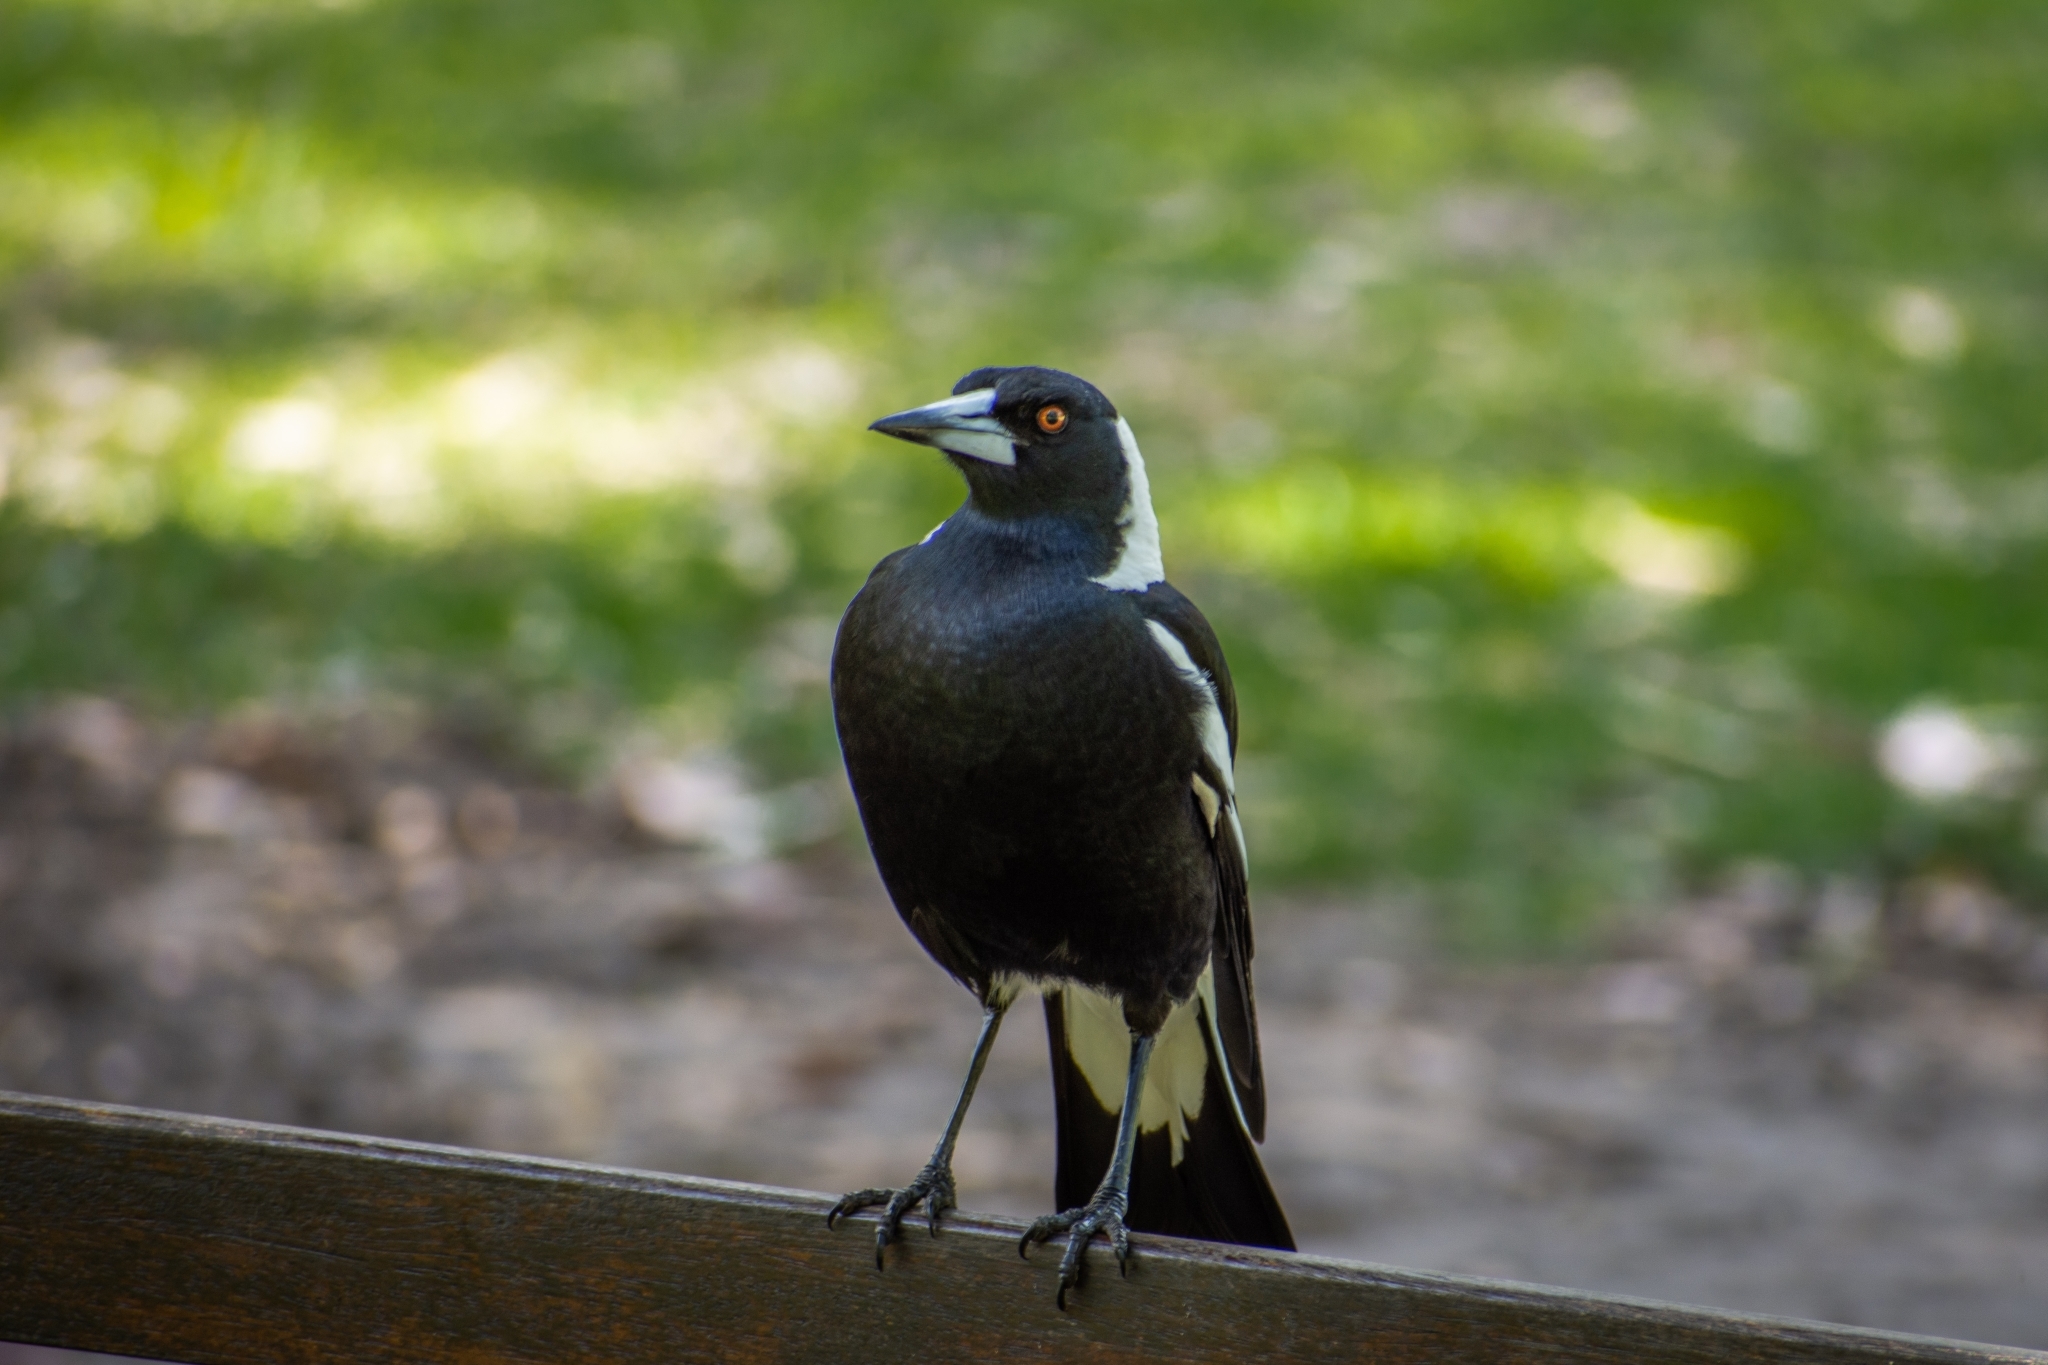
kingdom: Animalia
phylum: Chordata
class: Aves
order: Passeriformes
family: Cracticidae
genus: Gymnorhina
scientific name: Gymnorhina tibicen
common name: Australian magpie
